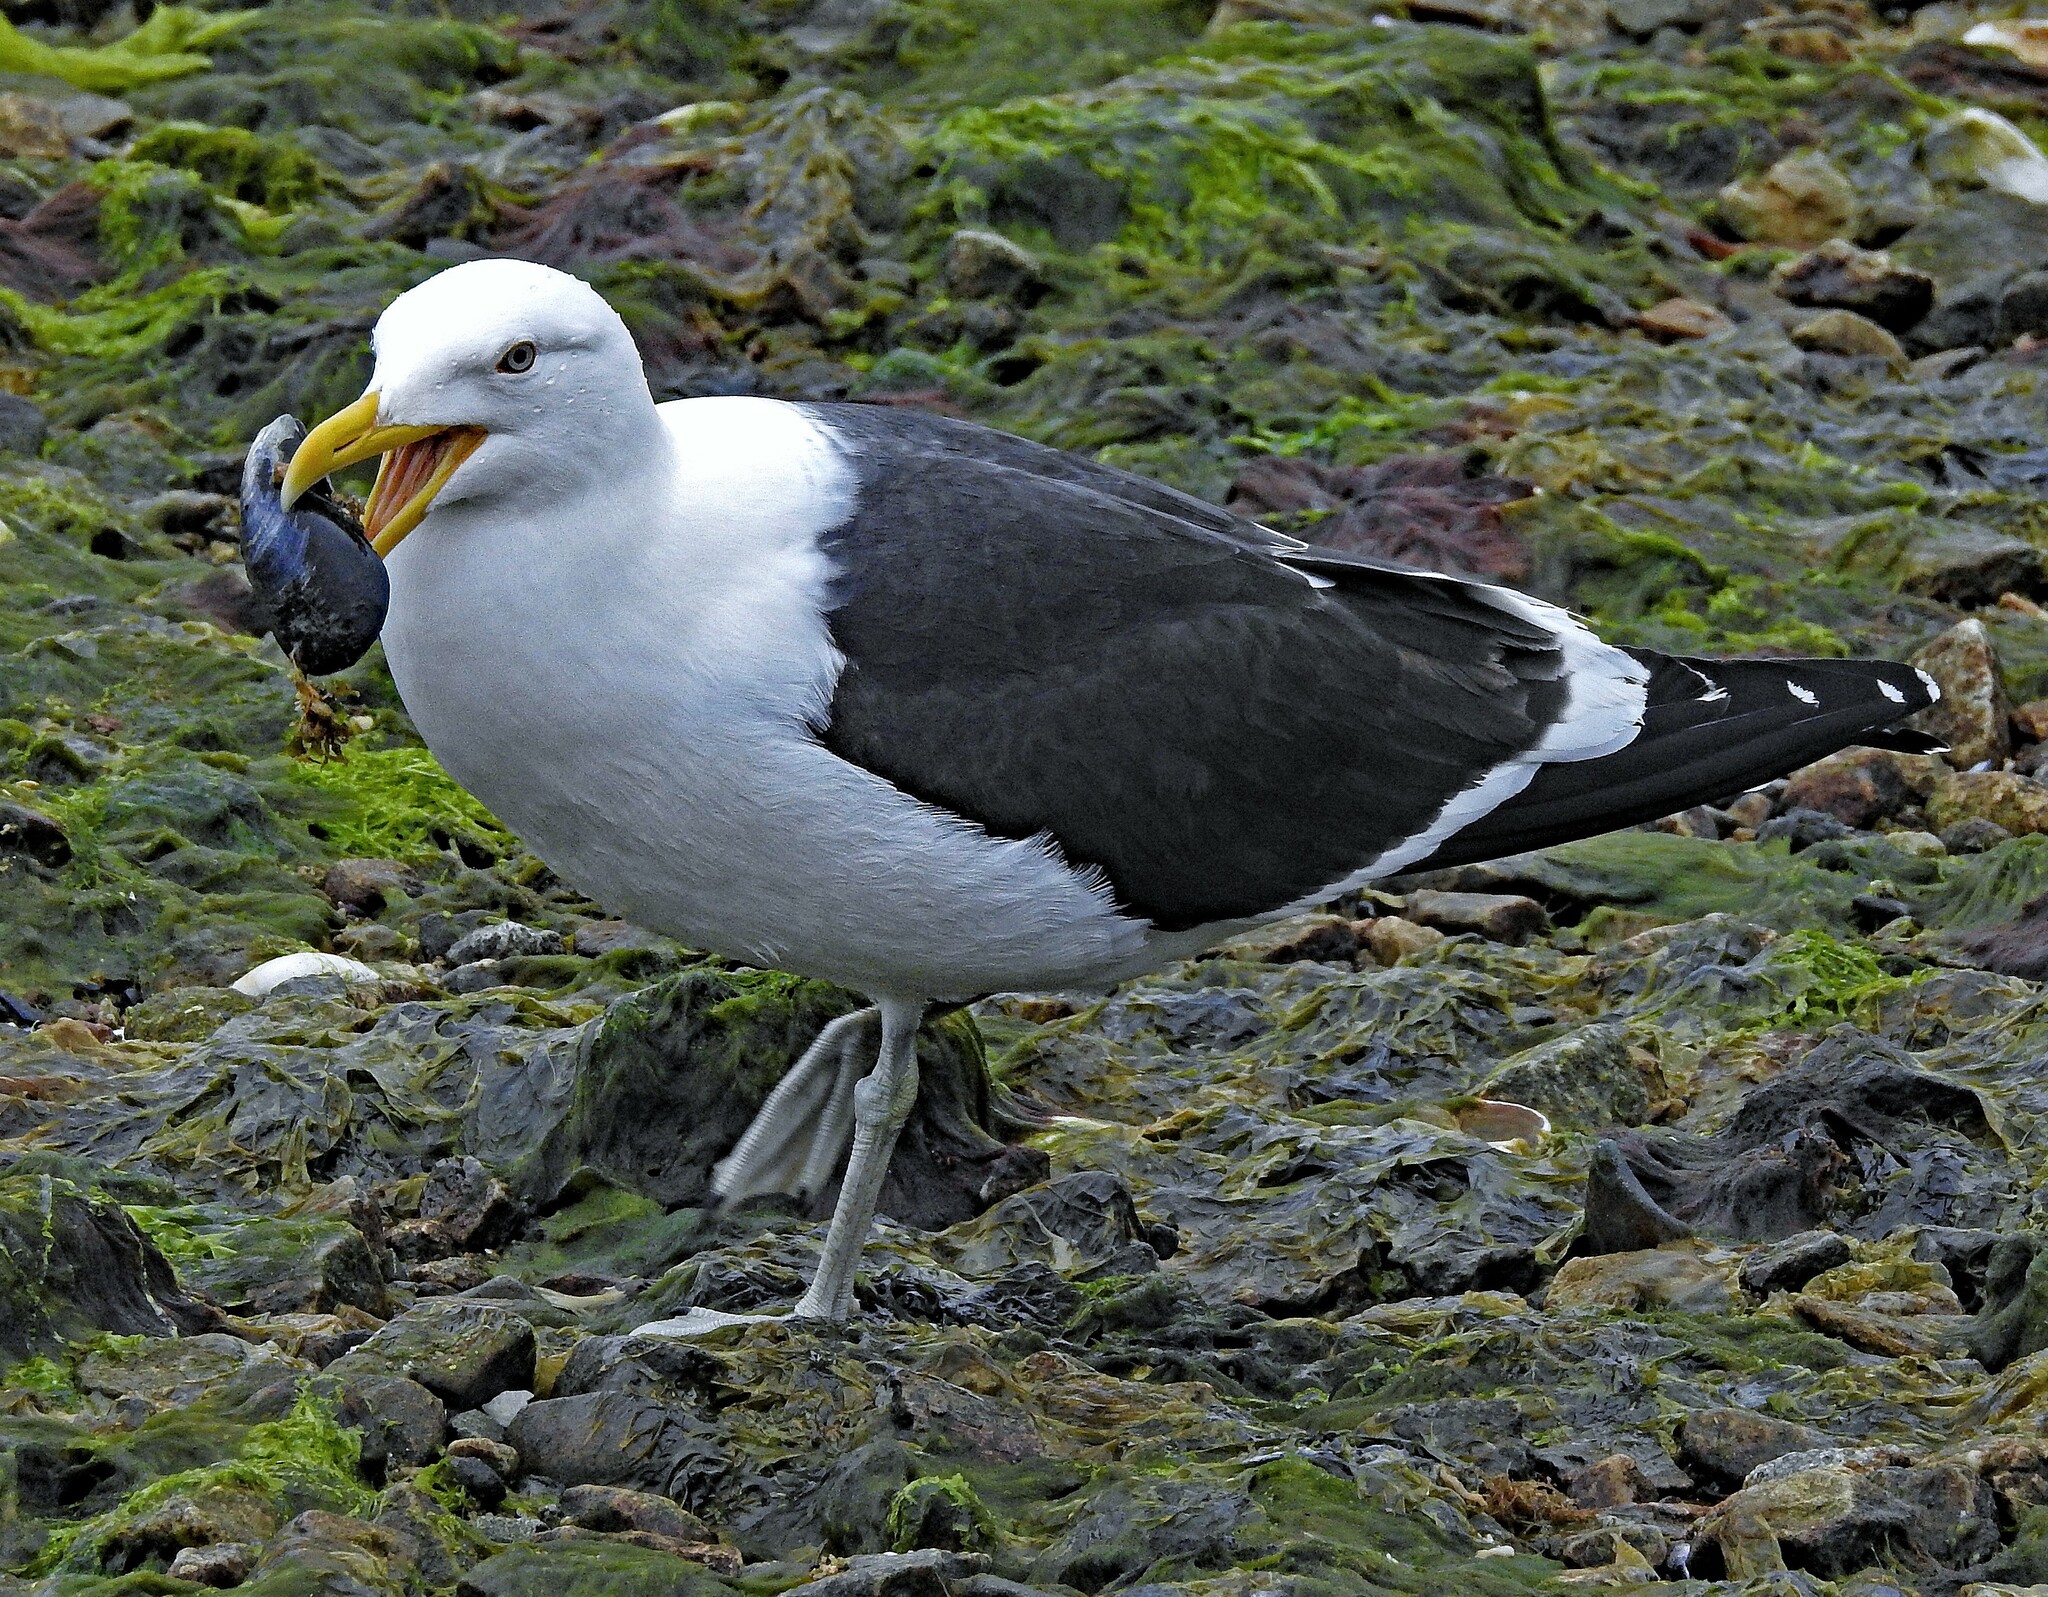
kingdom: Animalia
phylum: Chordata
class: Aves
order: Charadriiformes
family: Laridae
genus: Larus
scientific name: Larus dominicanus
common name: Kelp gull
